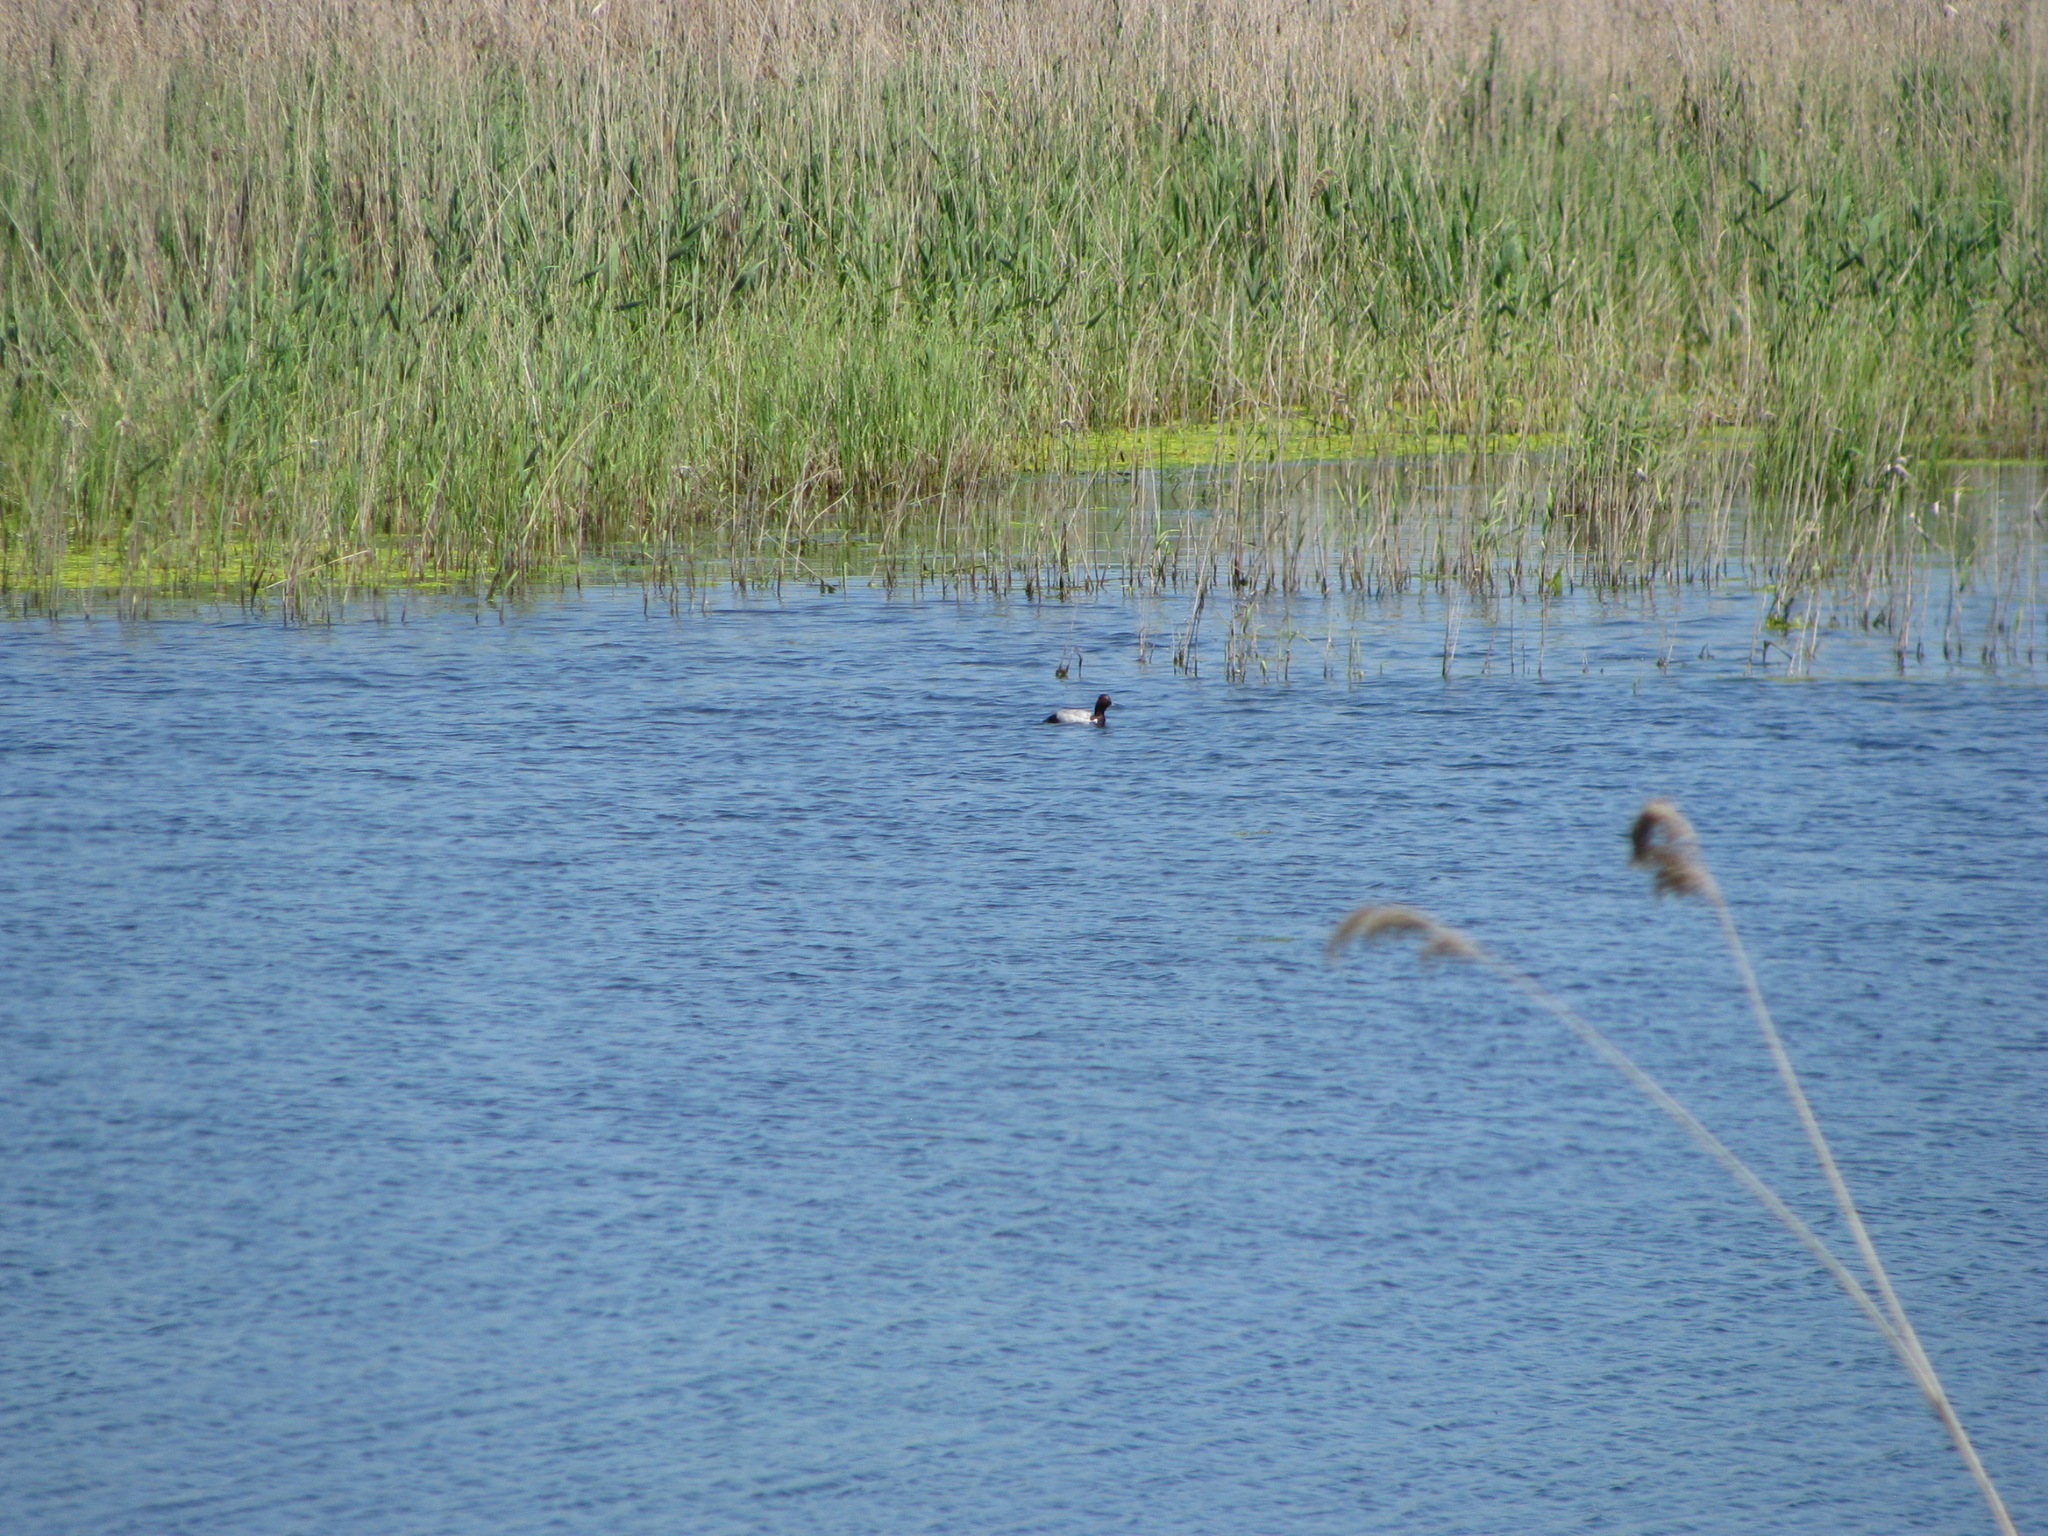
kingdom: Animalia
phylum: Chordata
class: Aves
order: Anseriformes
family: Anatidae
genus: Aythya
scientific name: Aythya ferina
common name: Common pochard
